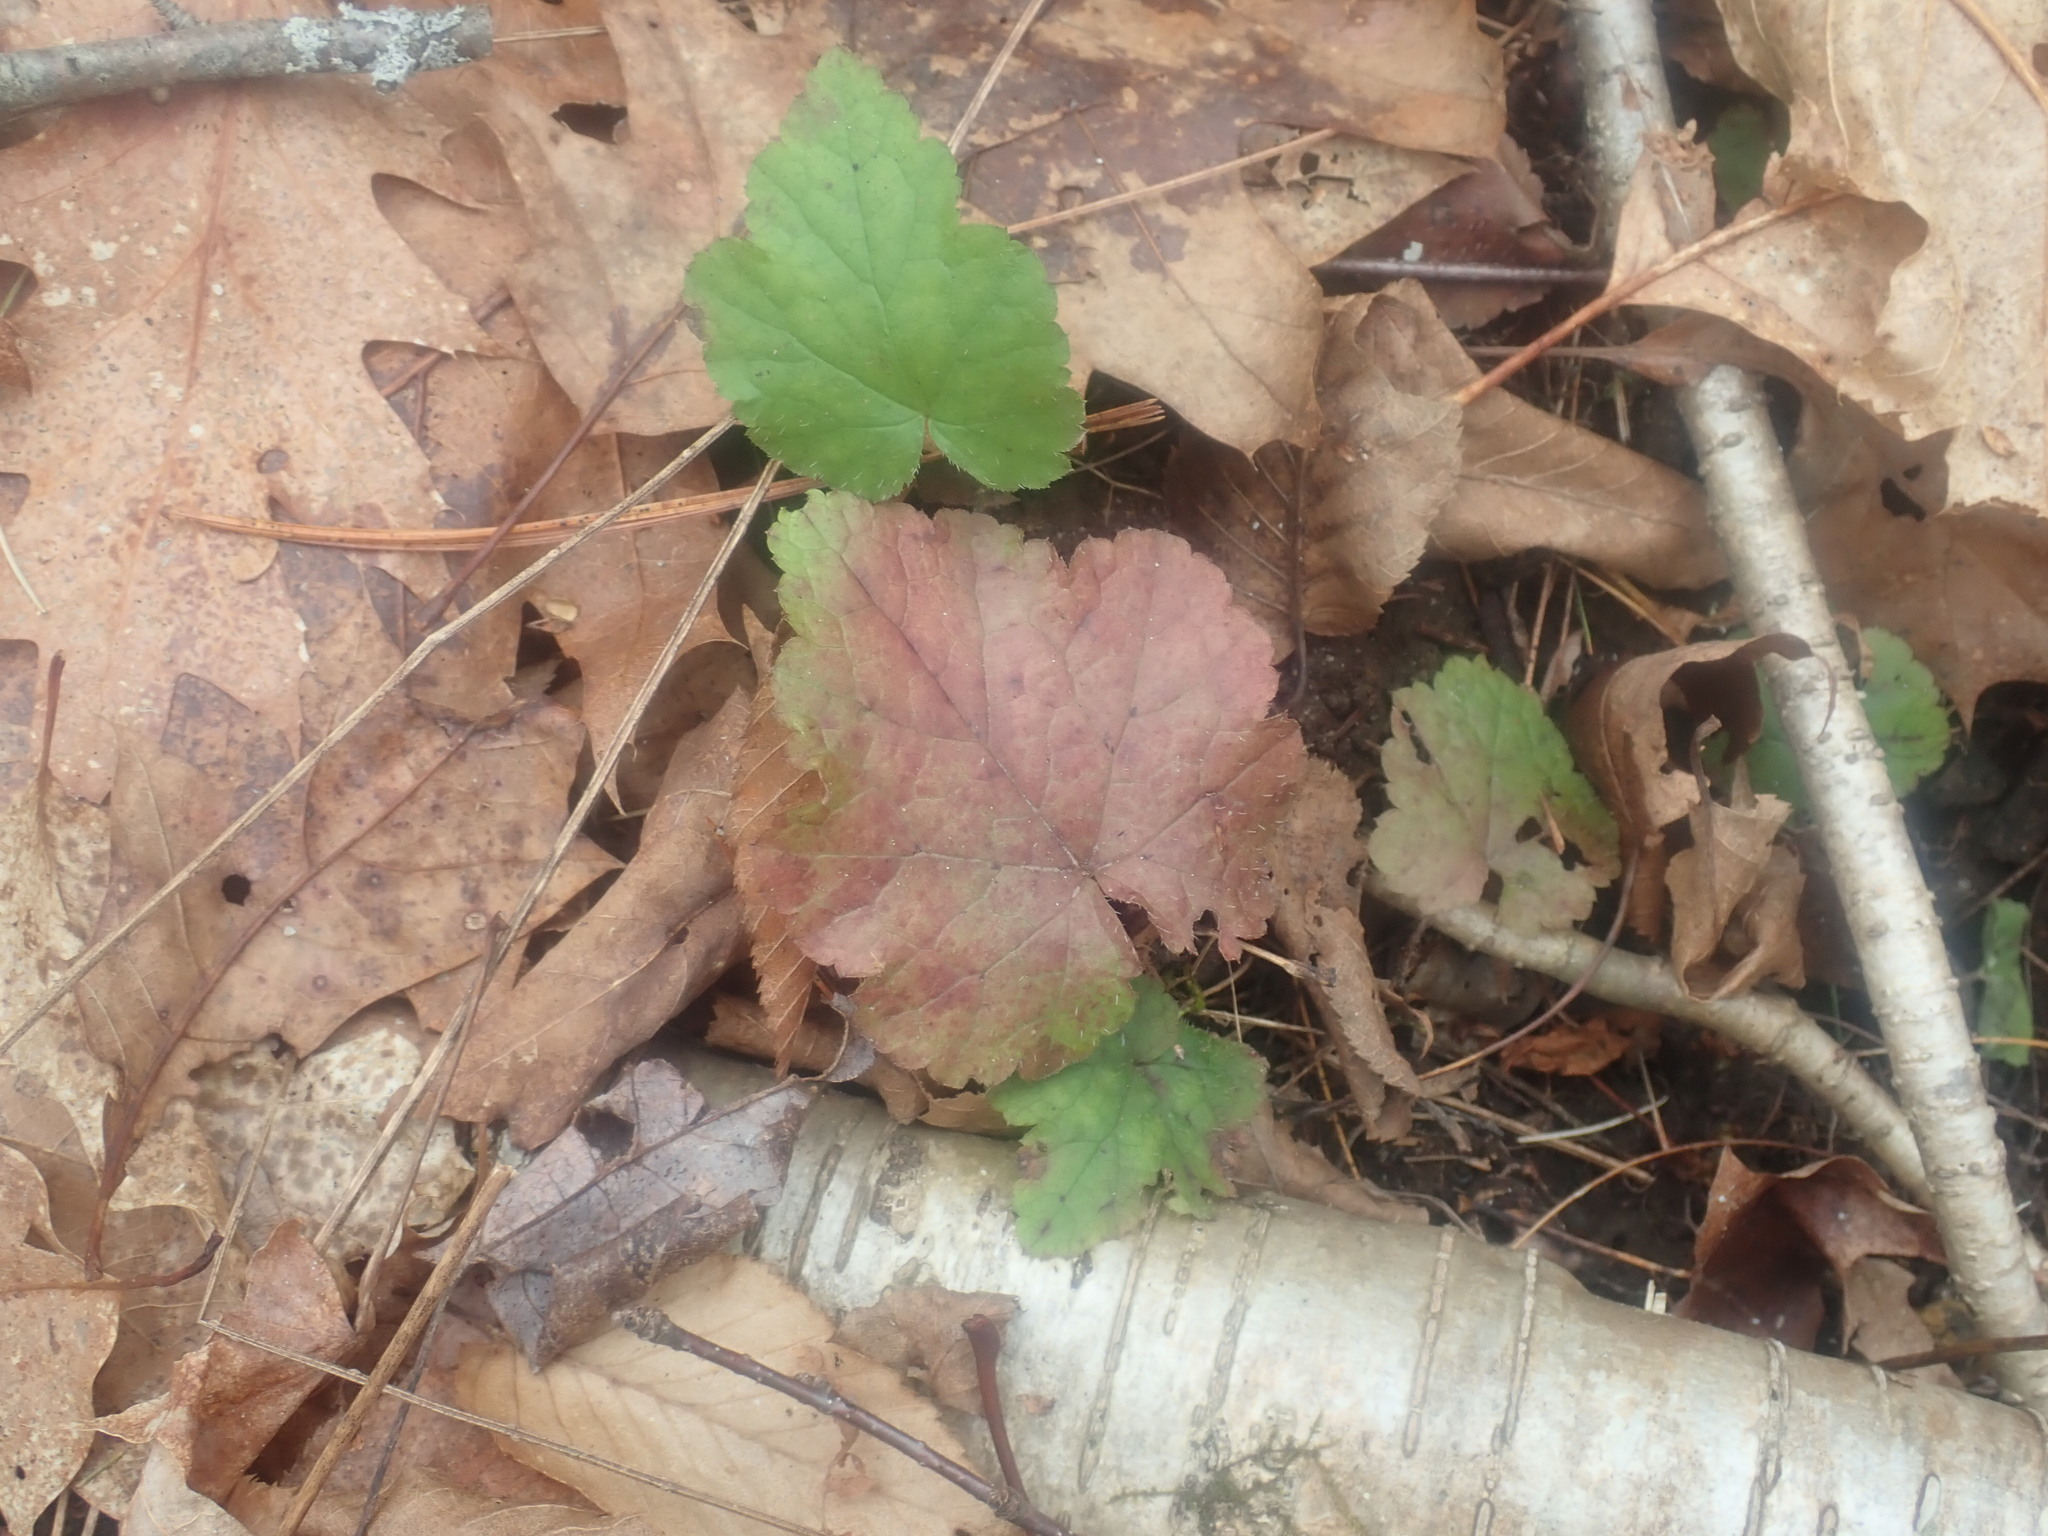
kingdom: Plantae
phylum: Tracheophyta
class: Magnoliopsida
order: Saxifragales
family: Saxifragaceae
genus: Tiarella
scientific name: Tiarella stolonifera
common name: Stoloniferous foamflower
